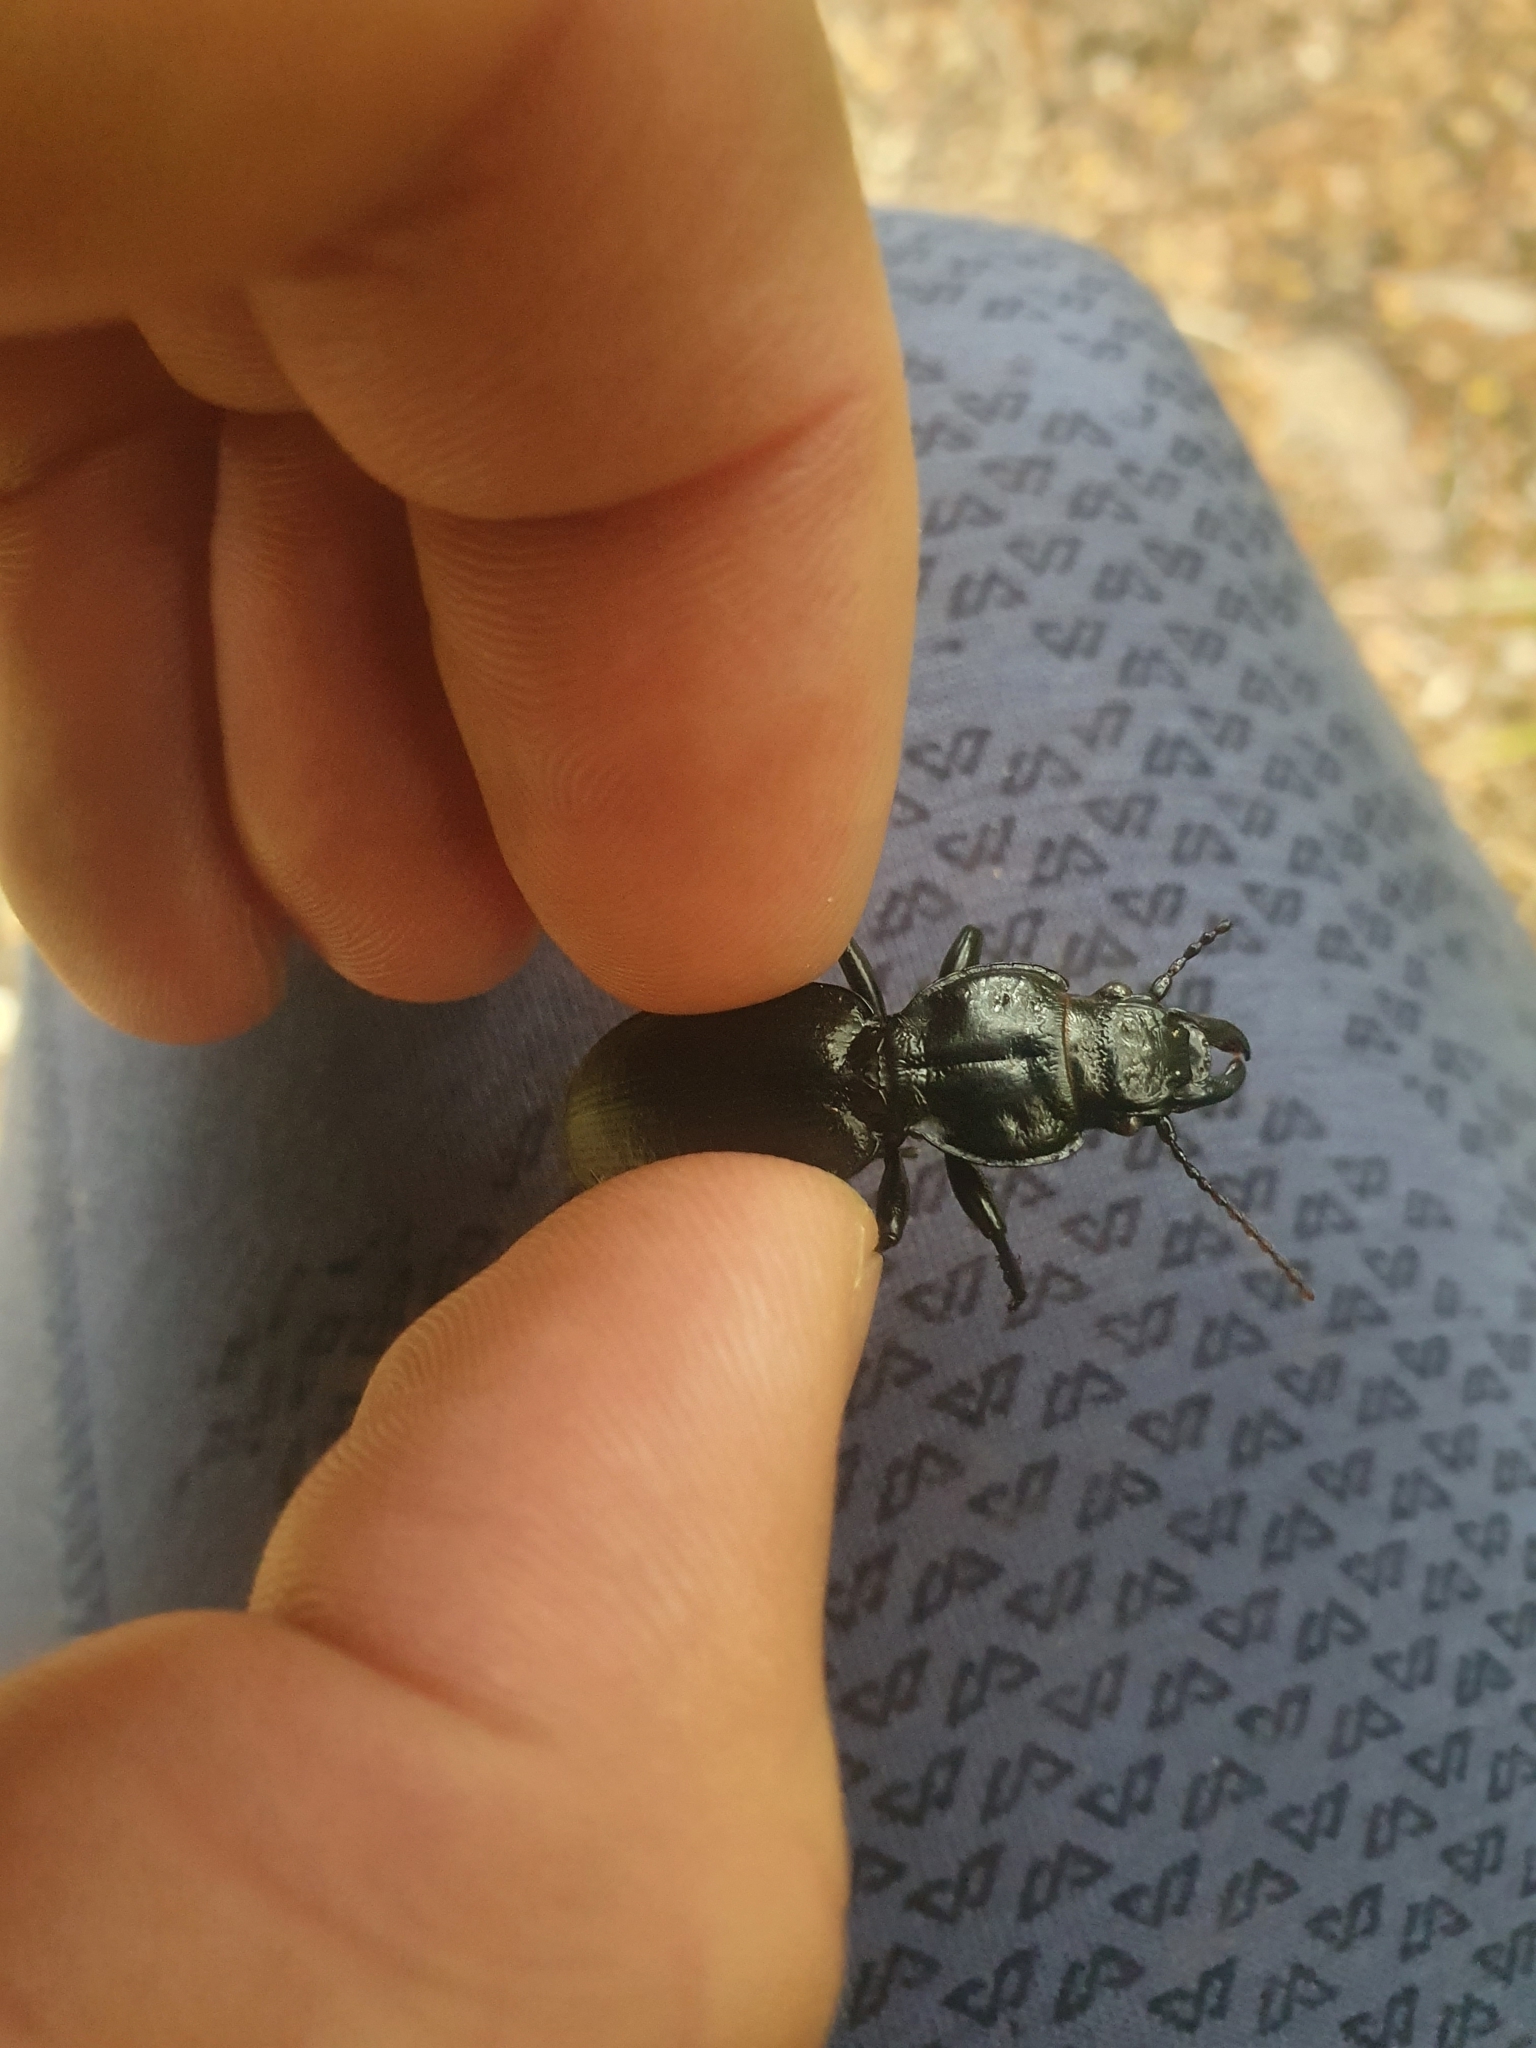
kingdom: Animalia
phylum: Arthropoda
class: Insecta
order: Coleoptera
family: Carabidae
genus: Mecodema
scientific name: Mecodema laterale
